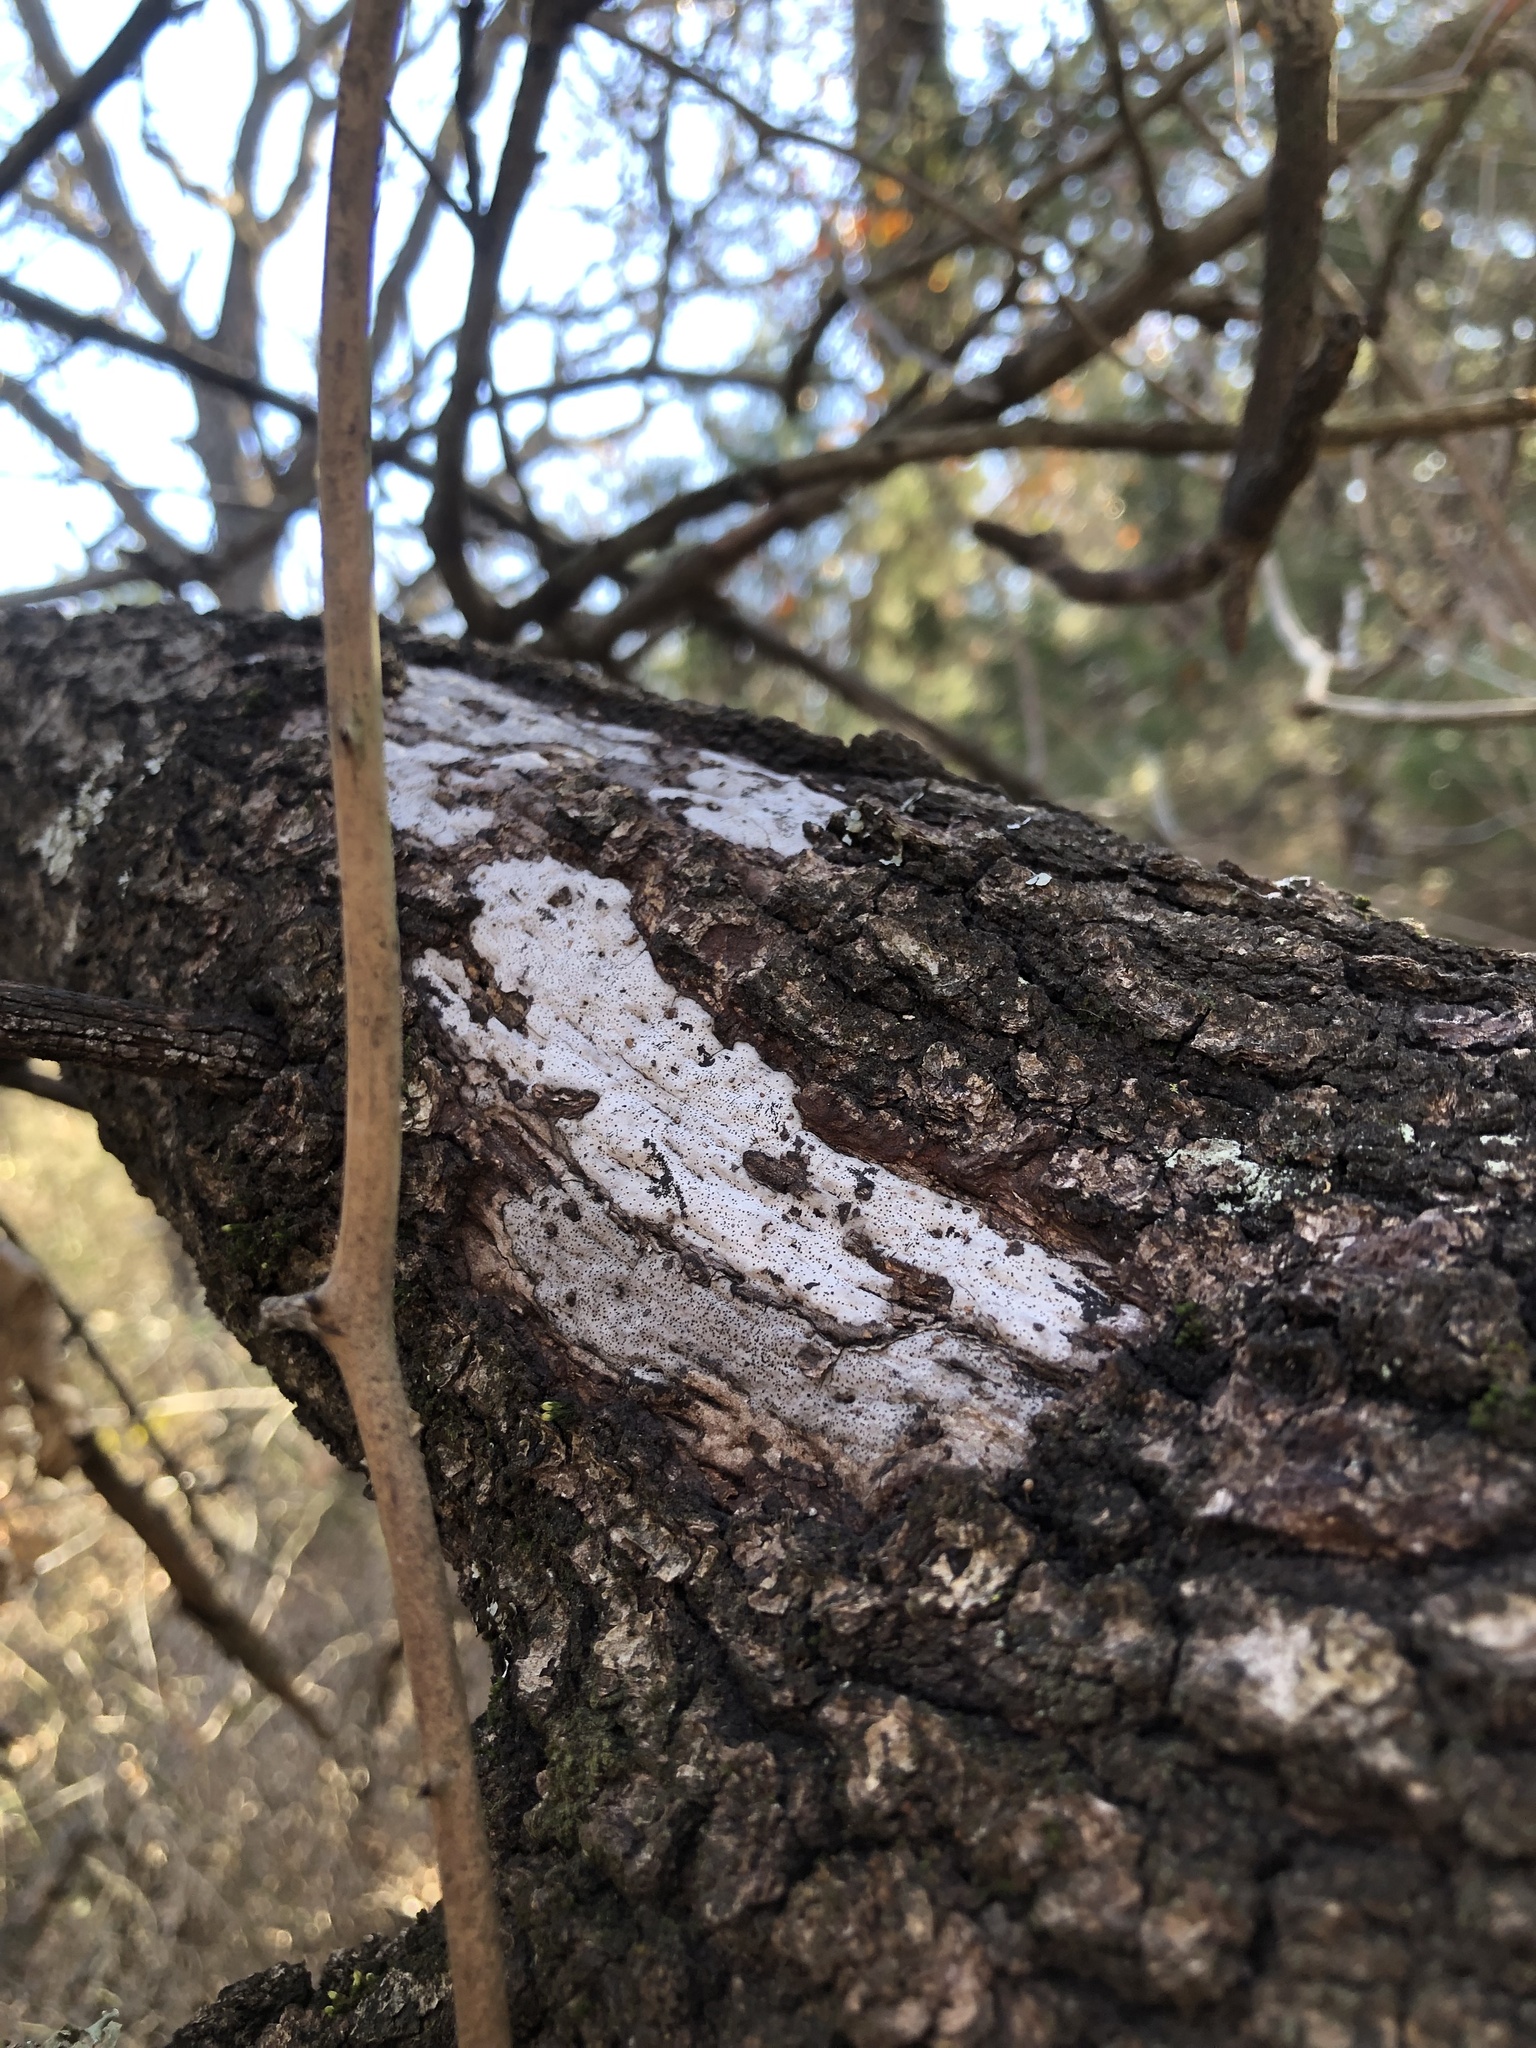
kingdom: Fungi
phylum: Ascomycota
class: Sordariomycetes
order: Xylariales
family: Graphostromataceae
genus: Biscogniauxia
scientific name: Biscogniauxia atropunctata
